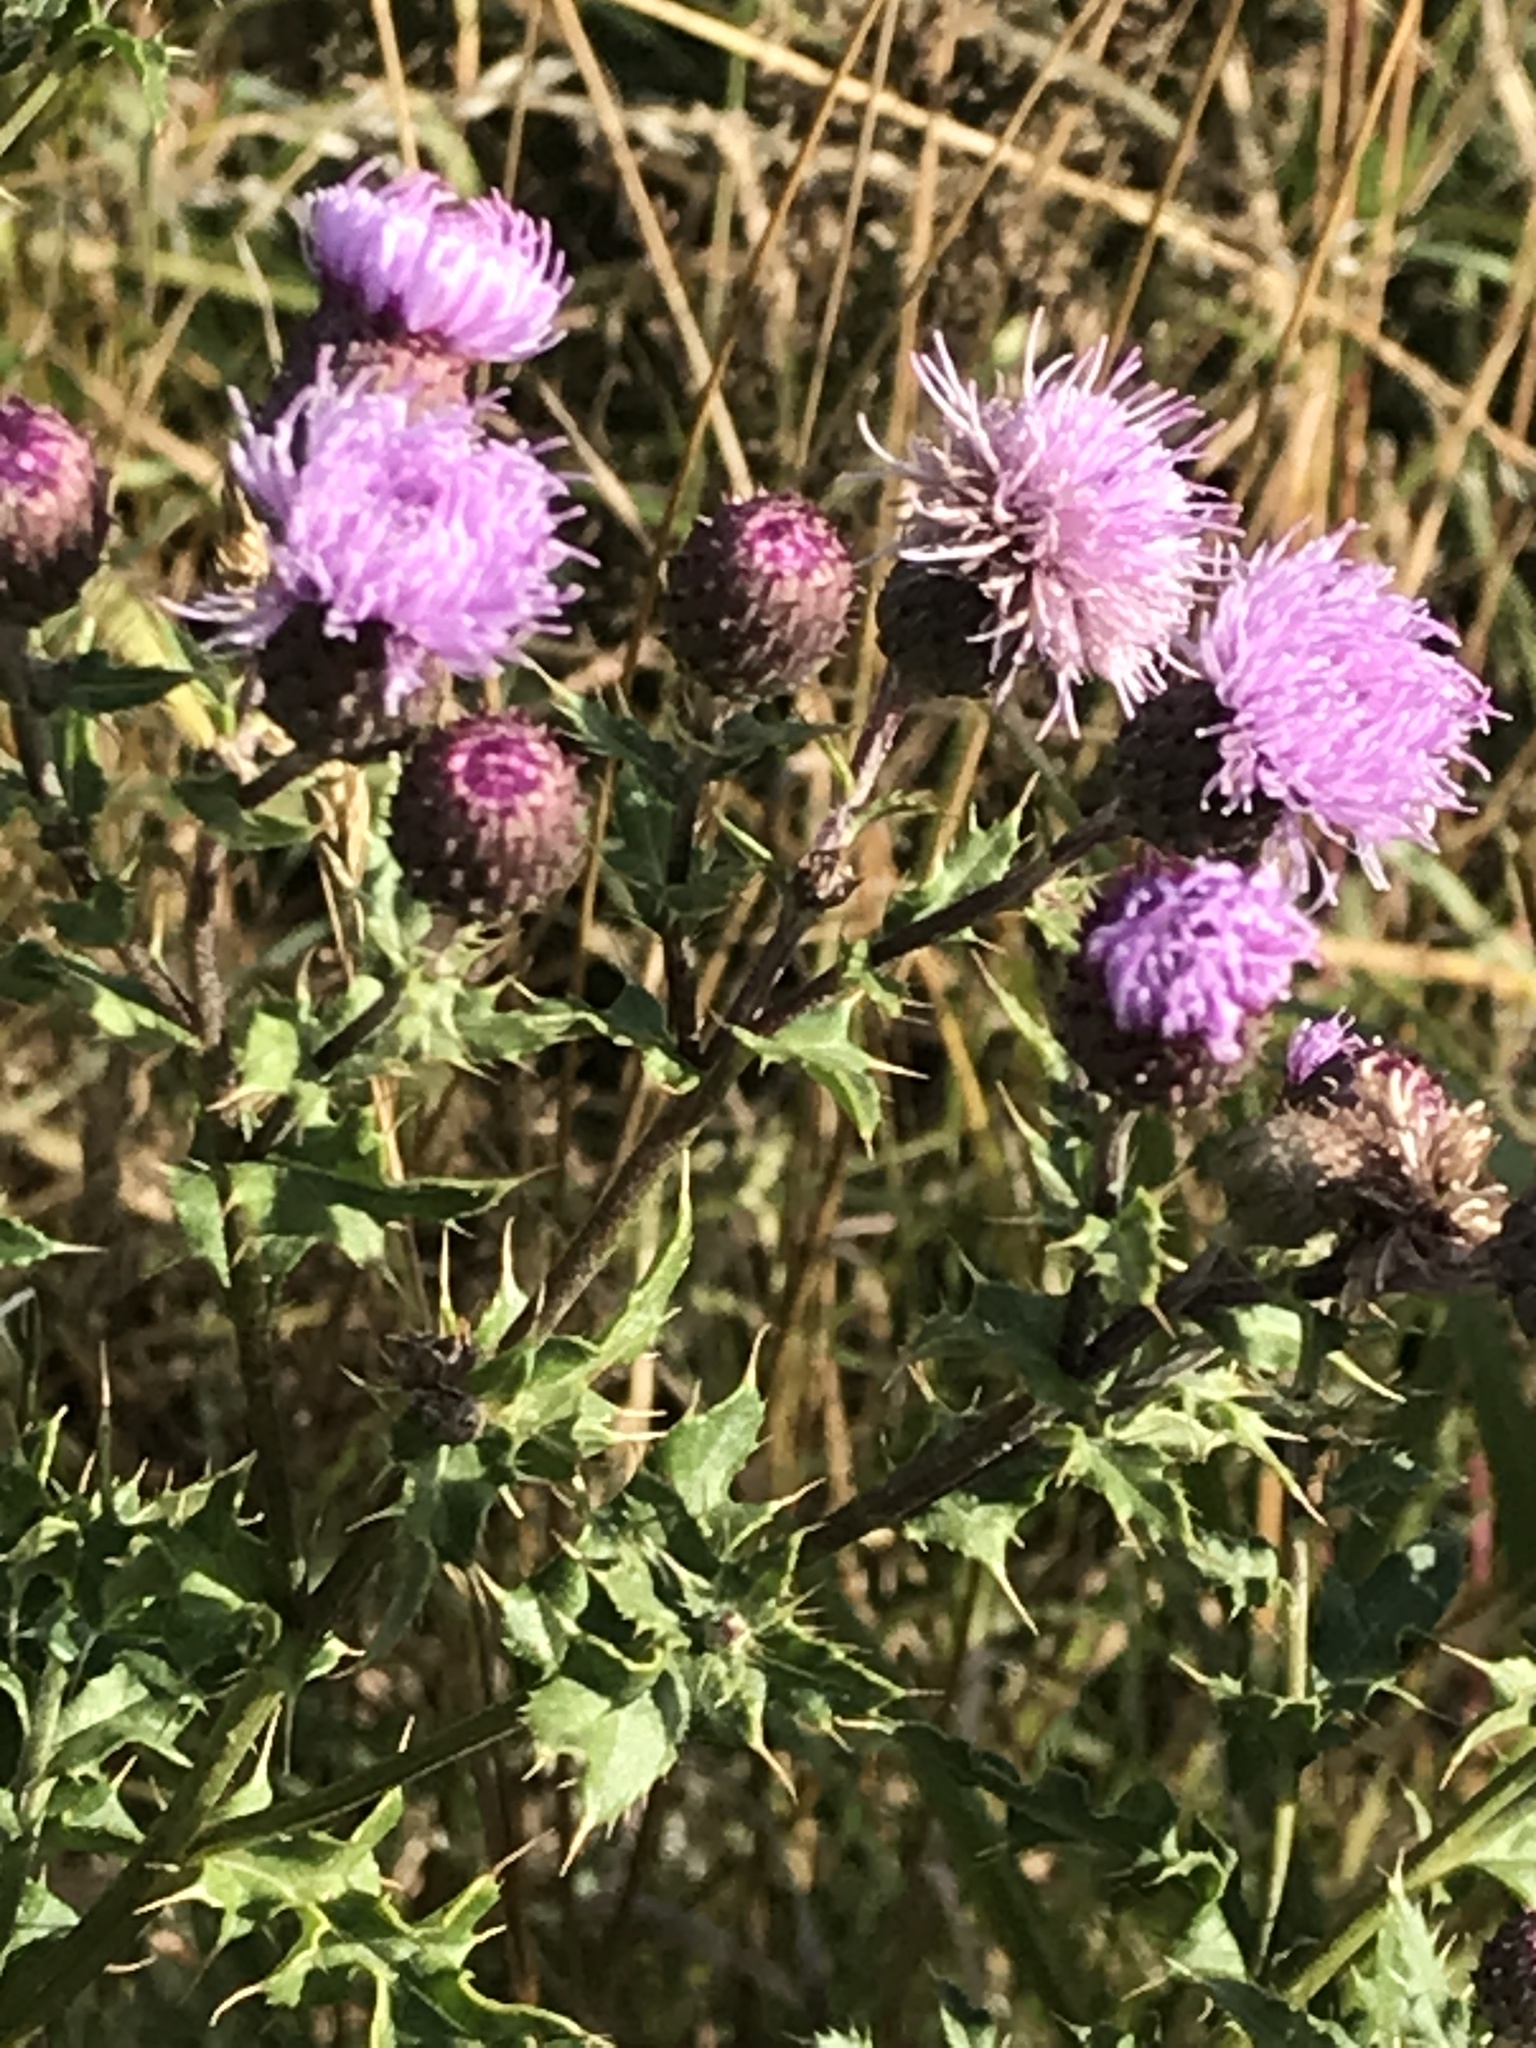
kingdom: Plantae
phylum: Tracheophyta
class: Magnoliopsida
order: Asterales
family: Asteraceae
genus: Cirsium
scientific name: Cirsium arvense
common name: Creeping thistle
